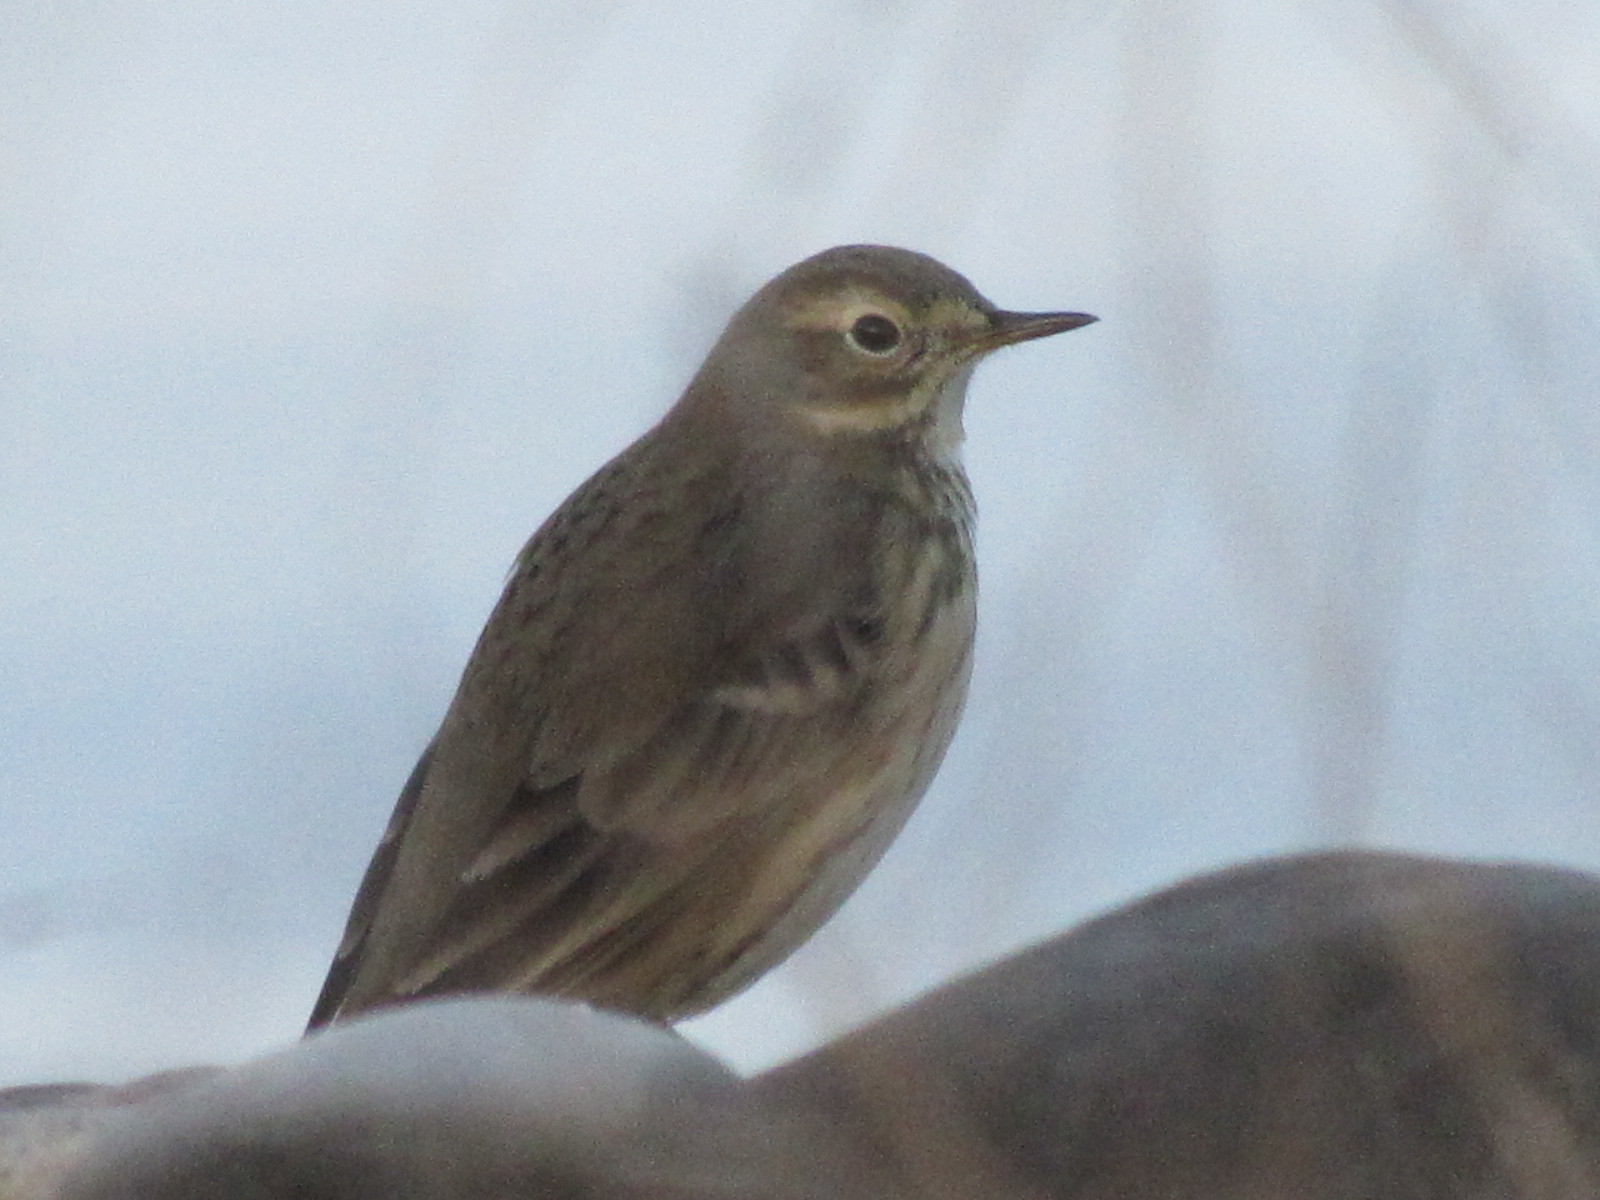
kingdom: Animalia
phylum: Chordata
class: Aves
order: Passeriformes
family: Motacillidae
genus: Anthus
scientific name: Anthus rubescens
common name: Buff-bellied pipit
